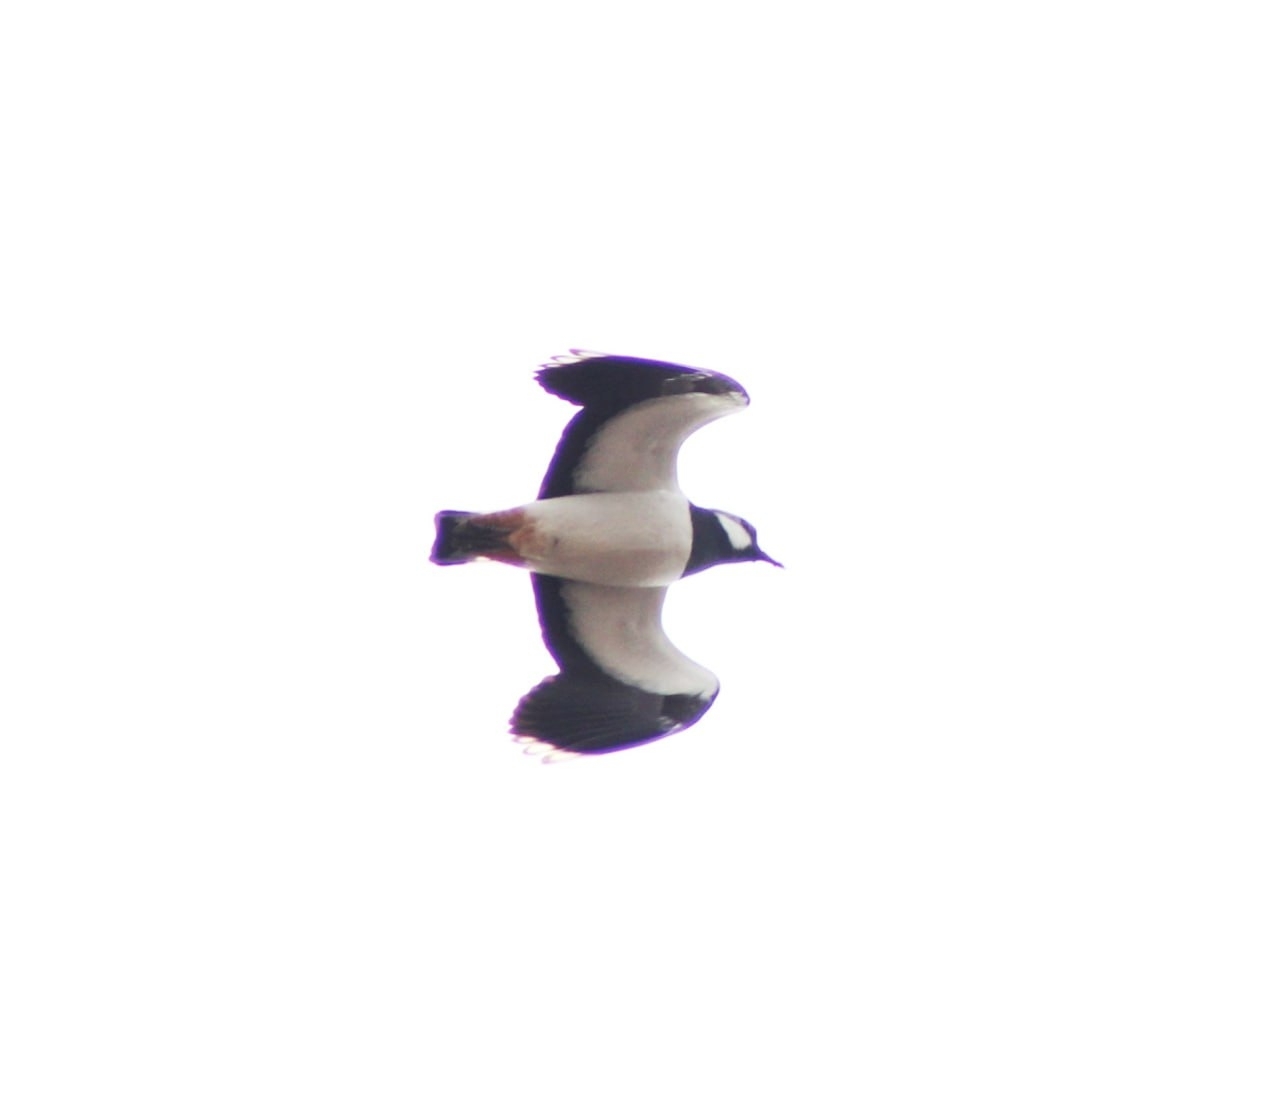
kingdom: Animalia
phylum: Chordata
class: Aves
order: Charadriiformes
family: Charadriidae
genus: Vanellus
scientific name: Vanellus vanellus
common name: Northern lapwing
